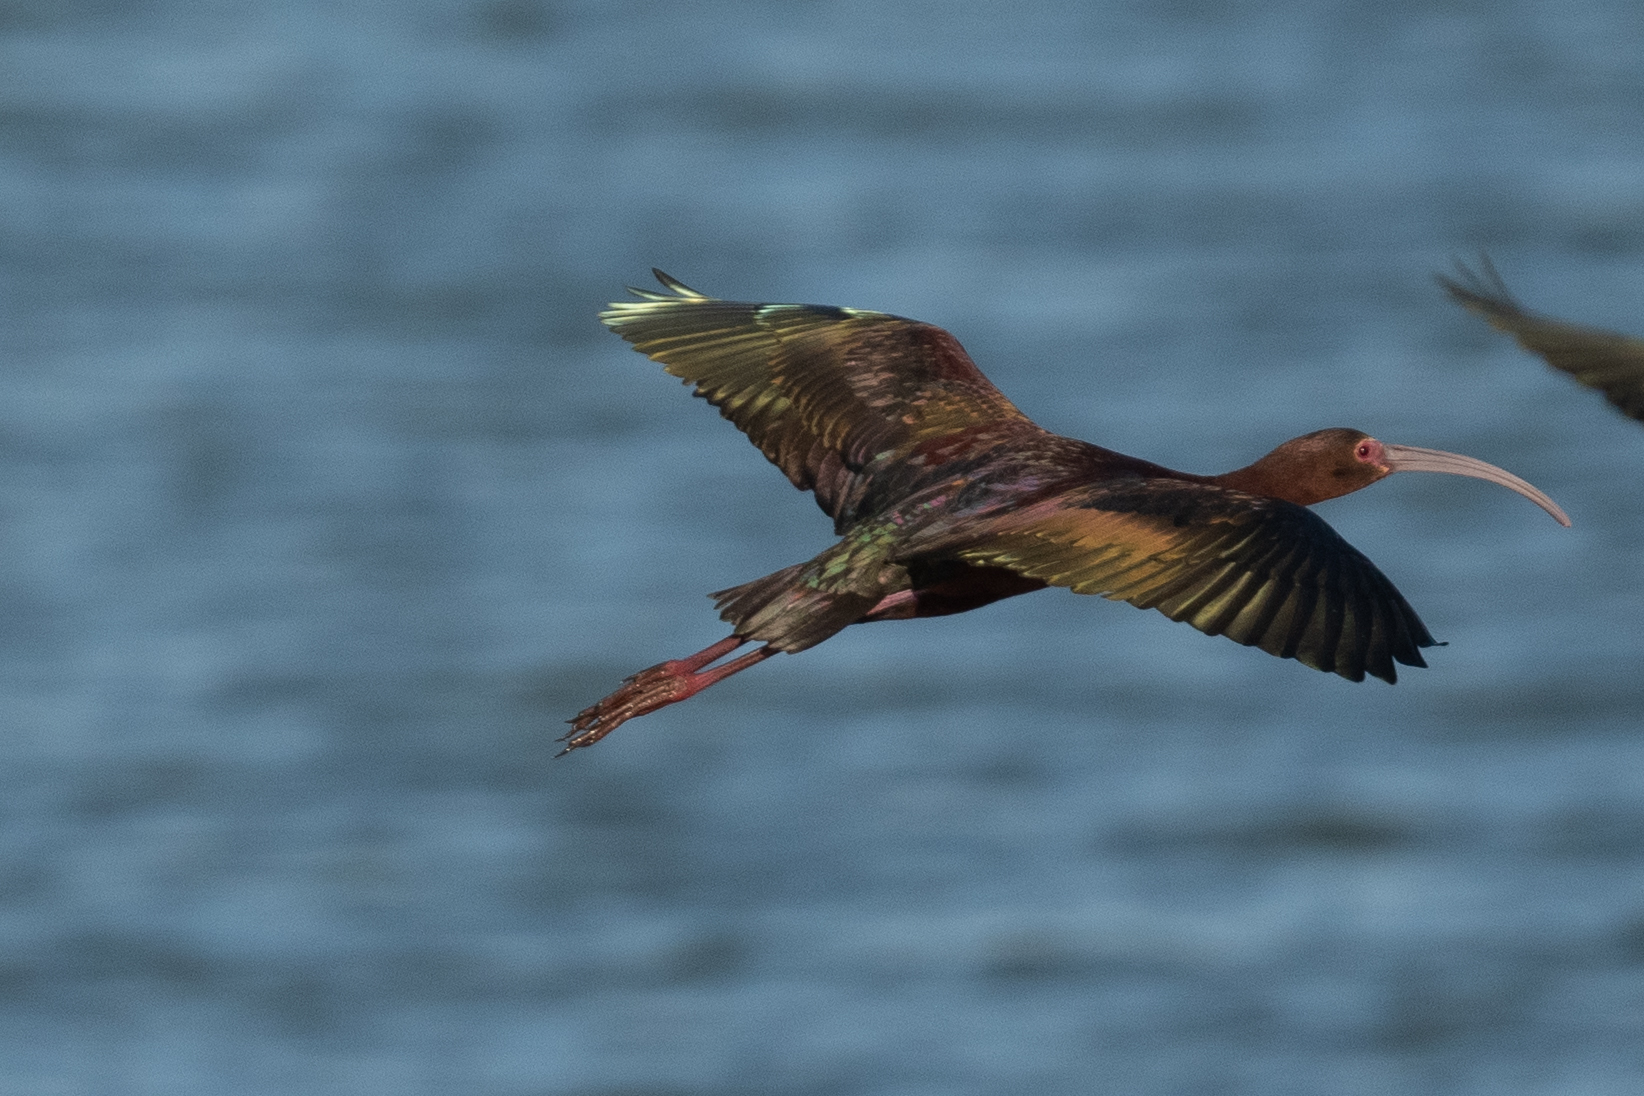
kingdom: Animalia
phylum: Chordata
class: Aves
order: Pelecaniformes
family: Threskiornithidae
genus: Plegadis
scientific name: Plegadis chihi
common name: White-faced ibis
